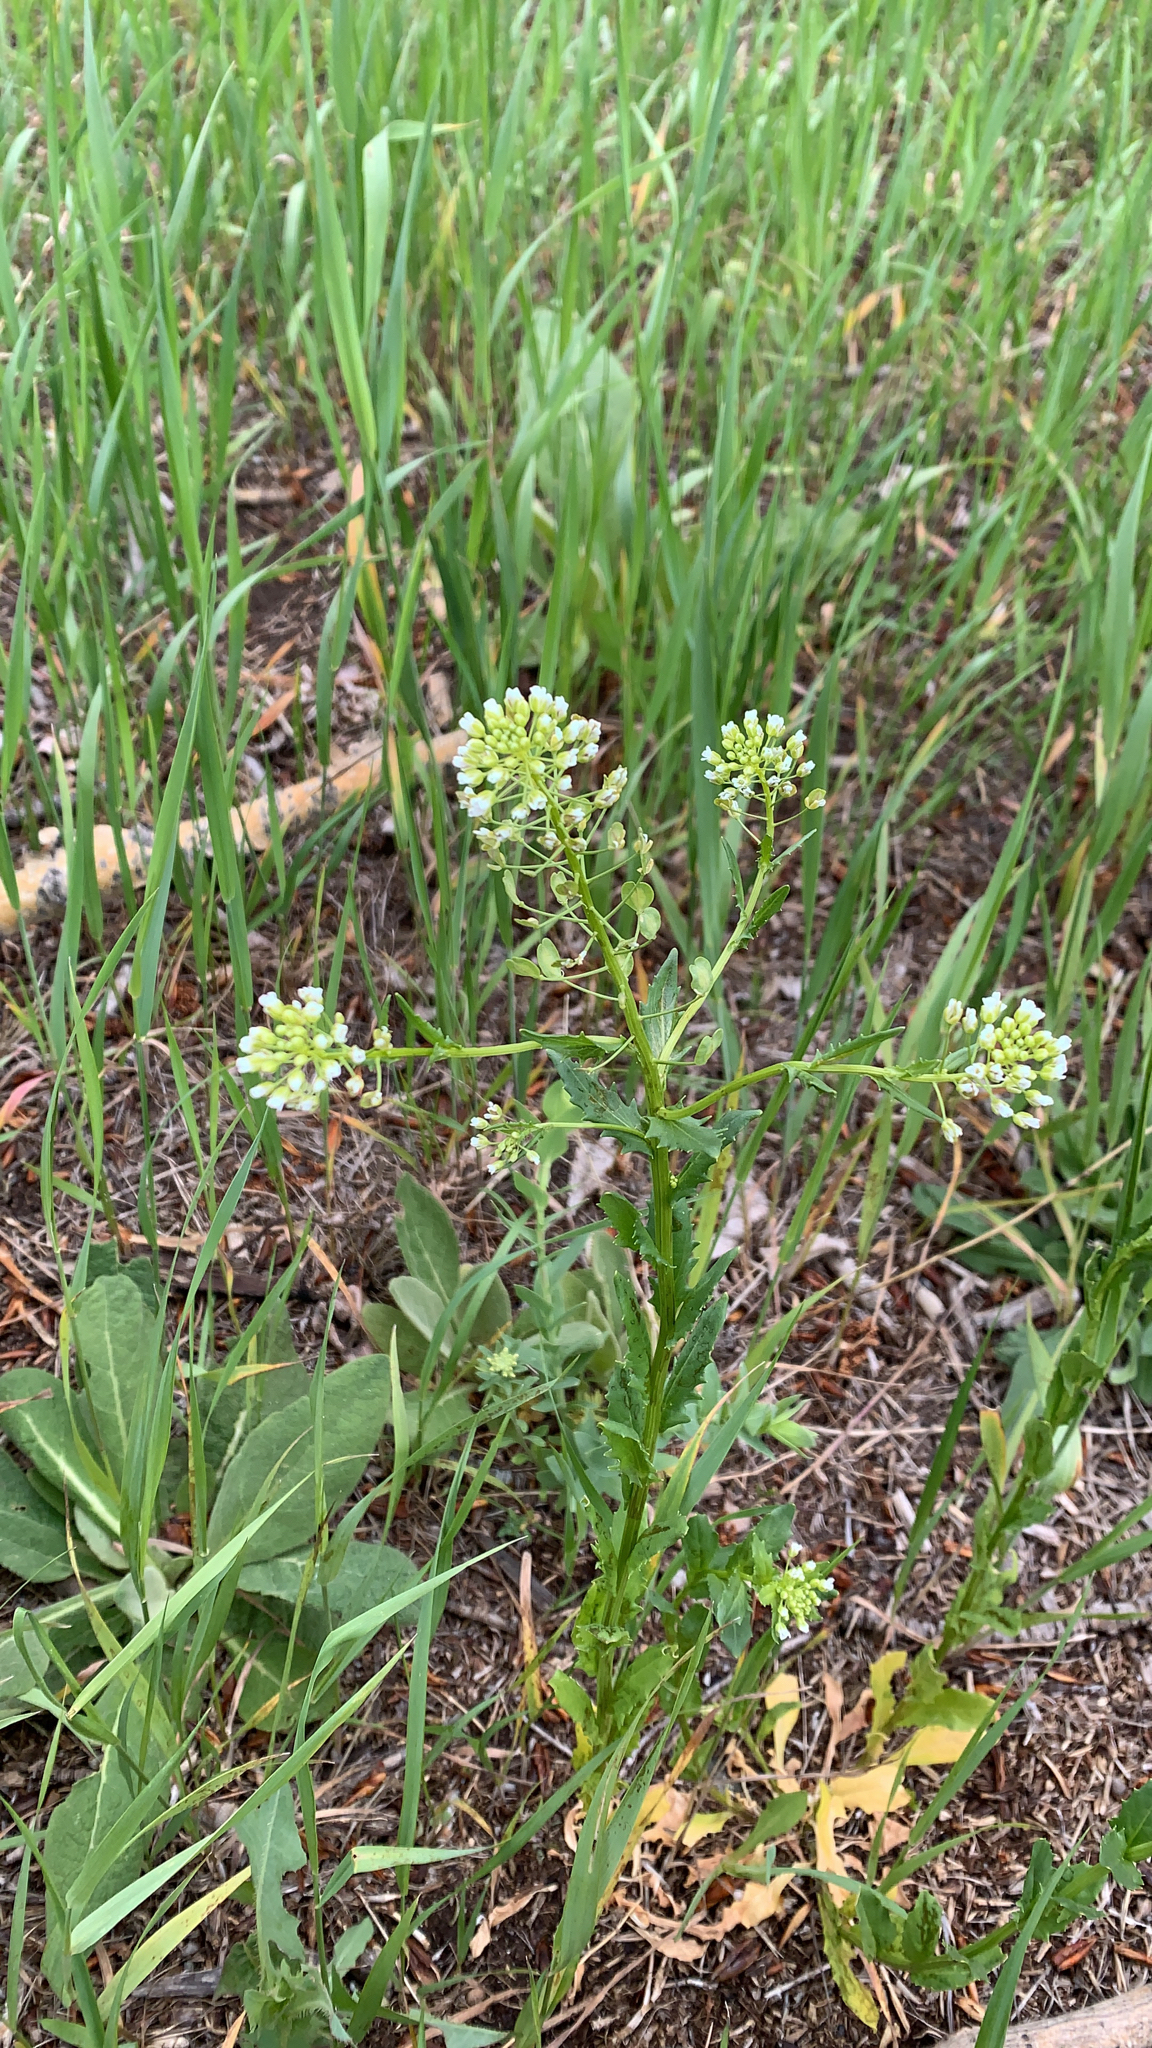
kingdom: Plantae
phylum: Tracheophyta
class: Magnoliopsida
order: Brassicales
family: Brassicaceae
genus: Thlaspi
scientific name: Thlaspi arvense
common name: Field pennycress
